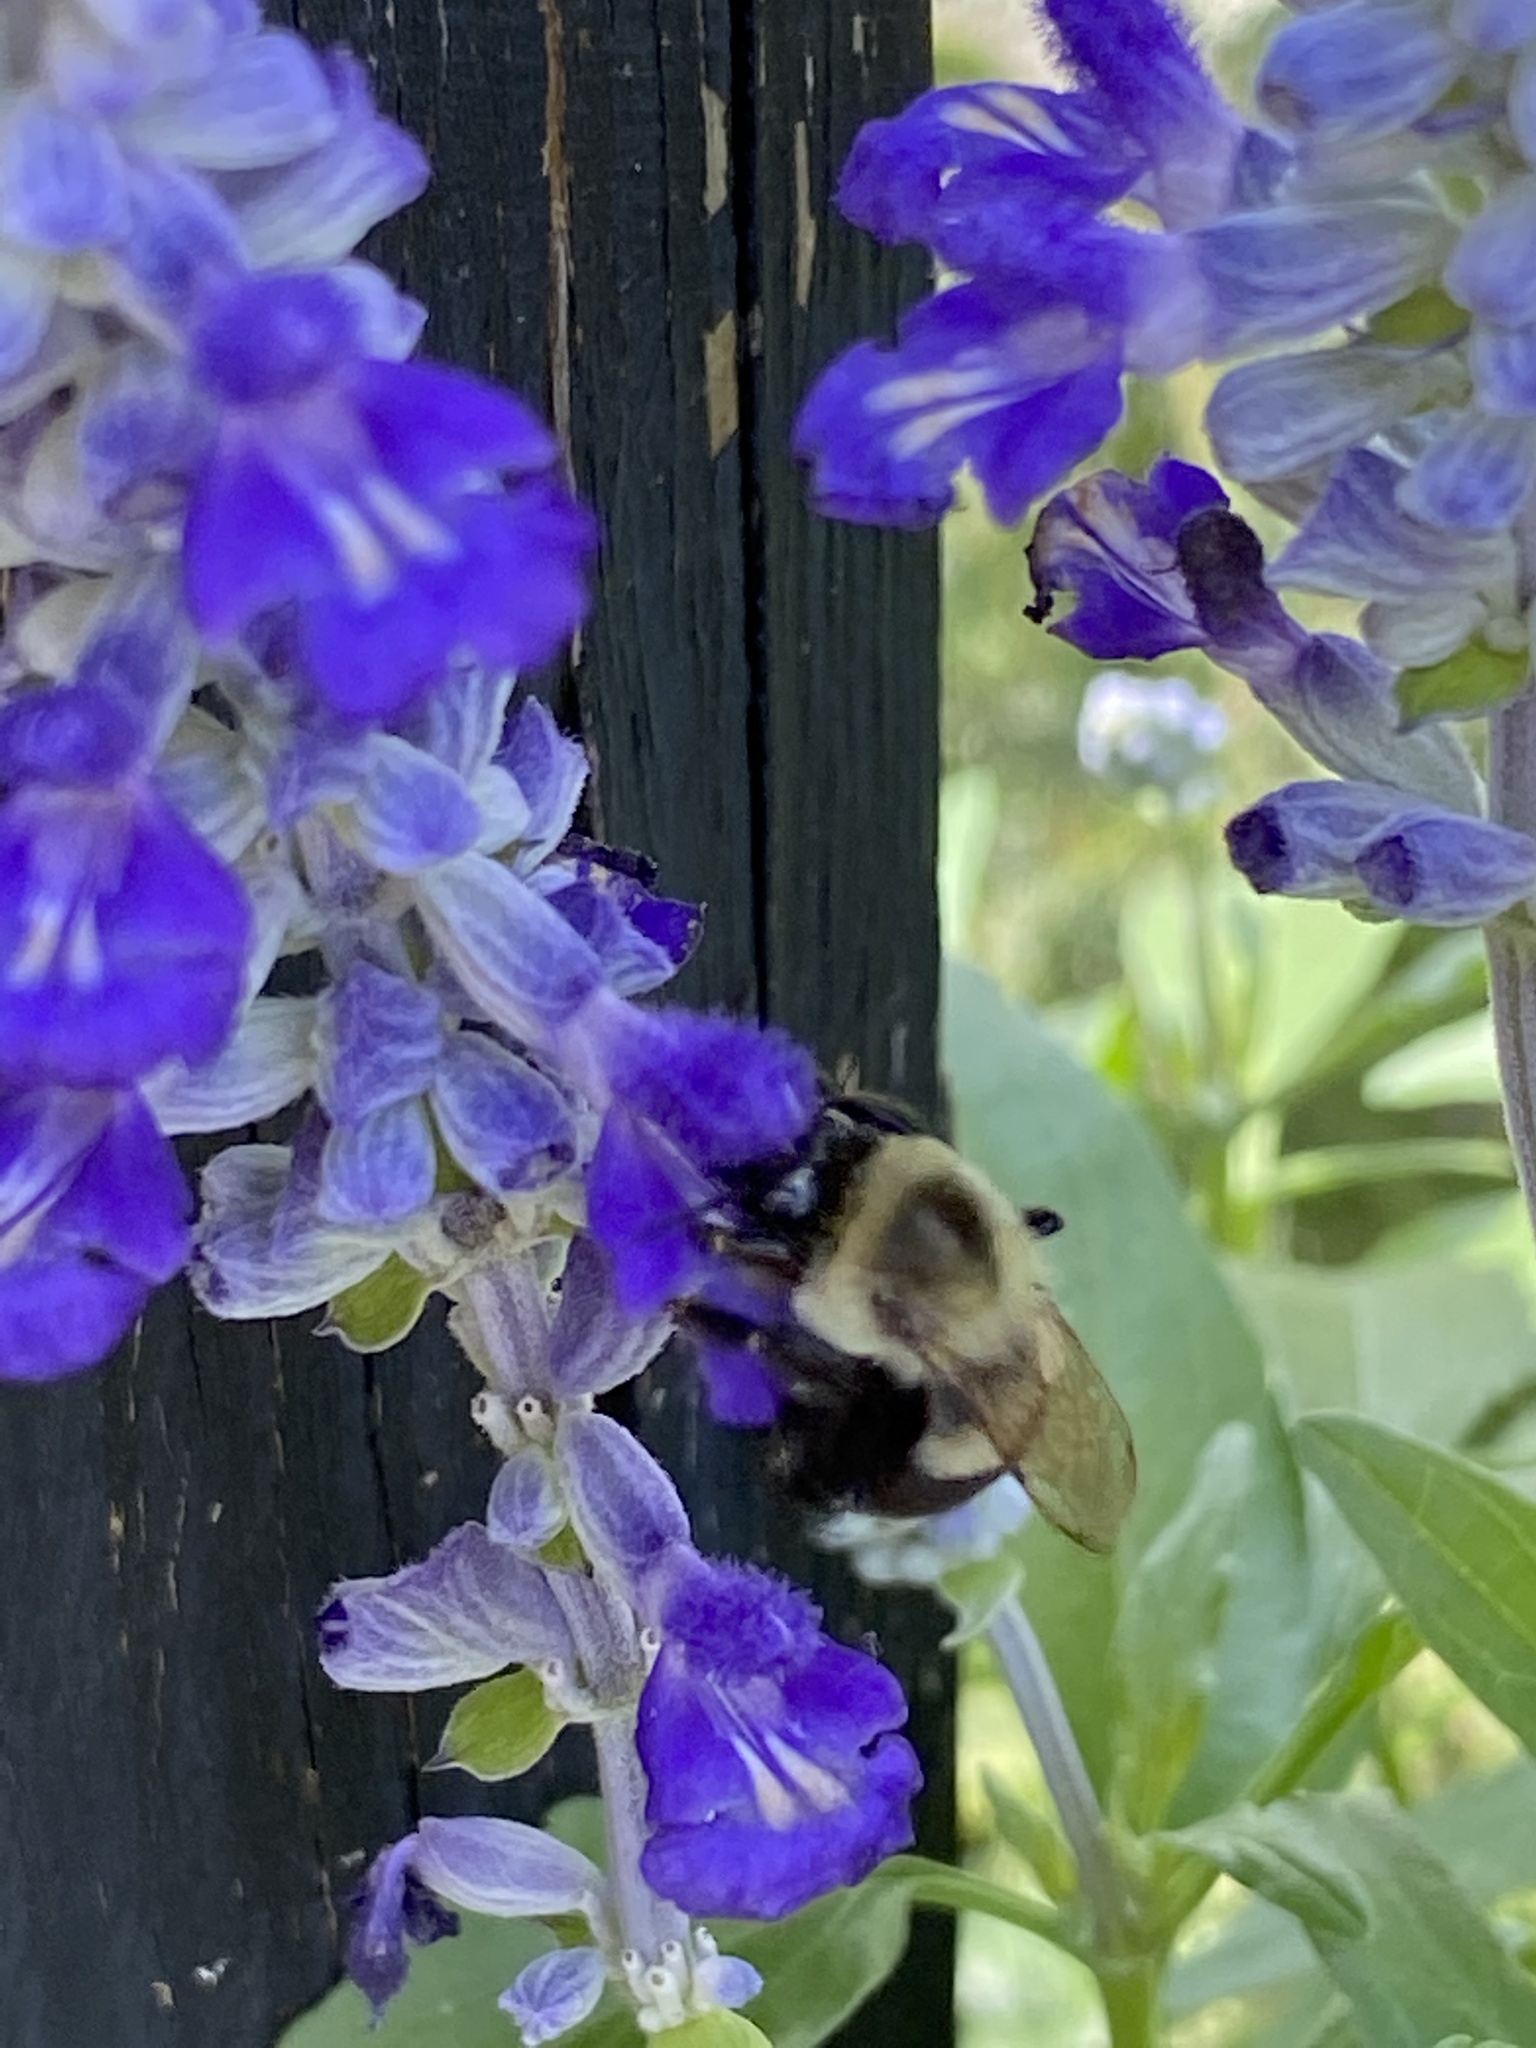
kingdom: Animalia
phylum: Arthropoda
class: Insecta
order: Hymenoptera
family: Apidae
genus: Bombus
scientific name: Bombus impatiens
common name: Common eastern bumble bee
